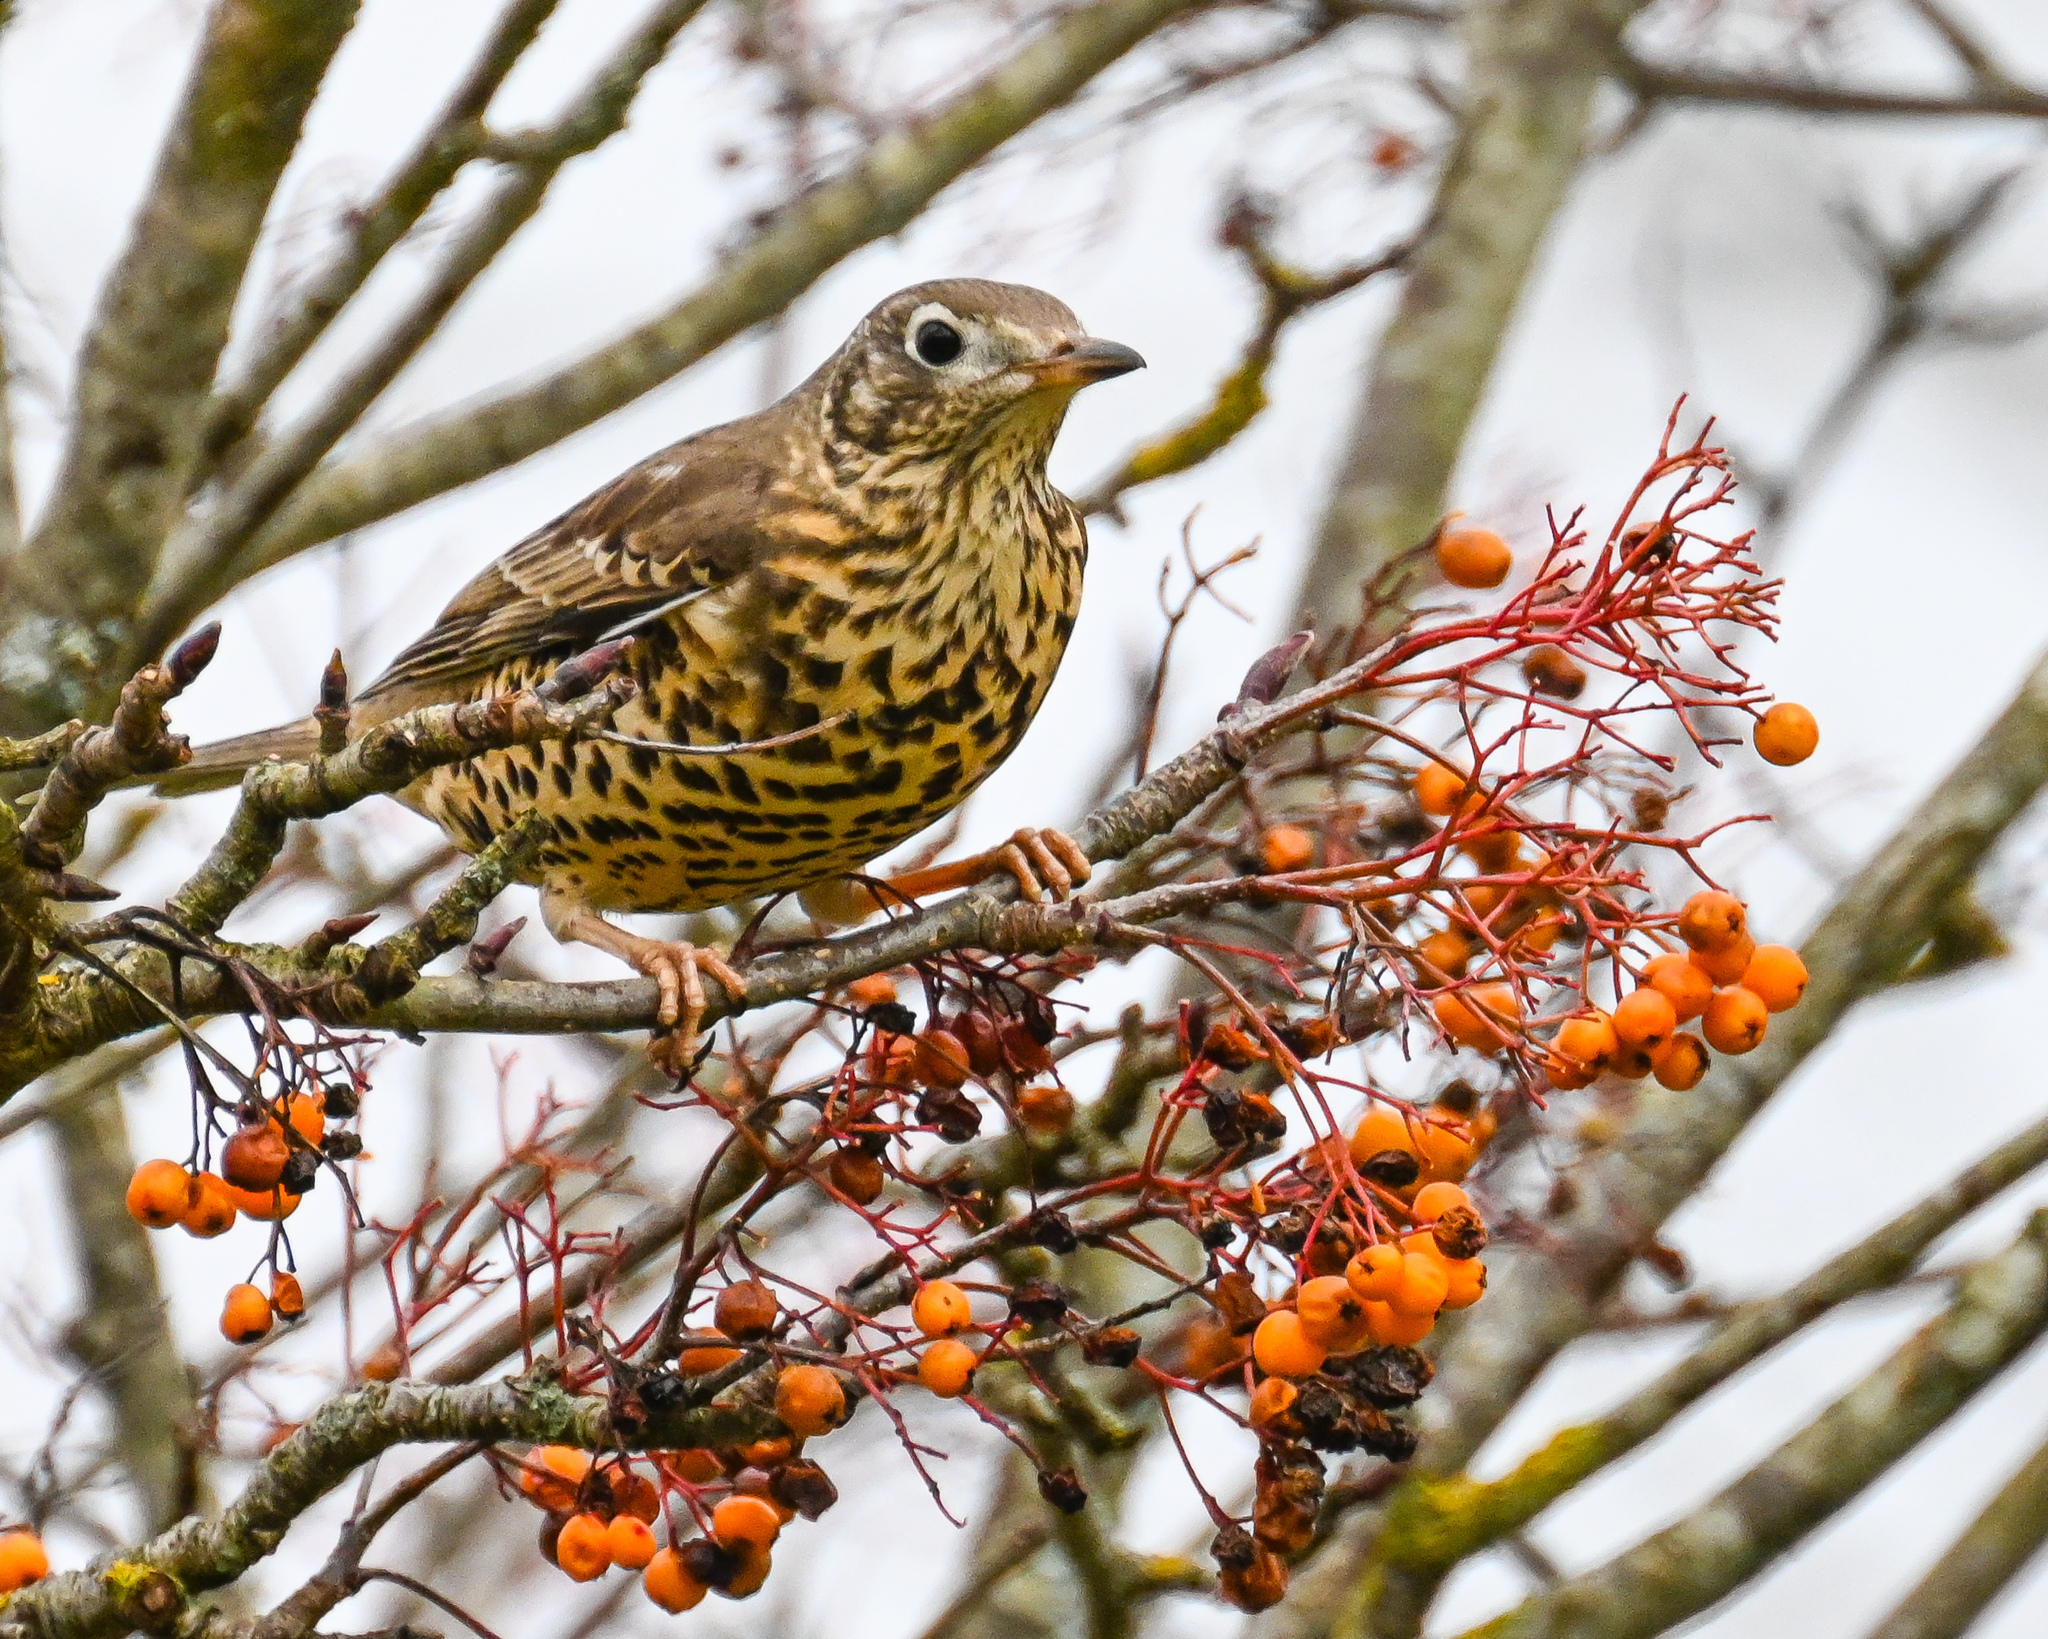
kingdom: Animalia
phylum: Chordata
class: Aves
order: Passeriformes
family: Turdidae
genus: Turdus
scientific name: Turdus viscivorus
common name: Mistle thrush
